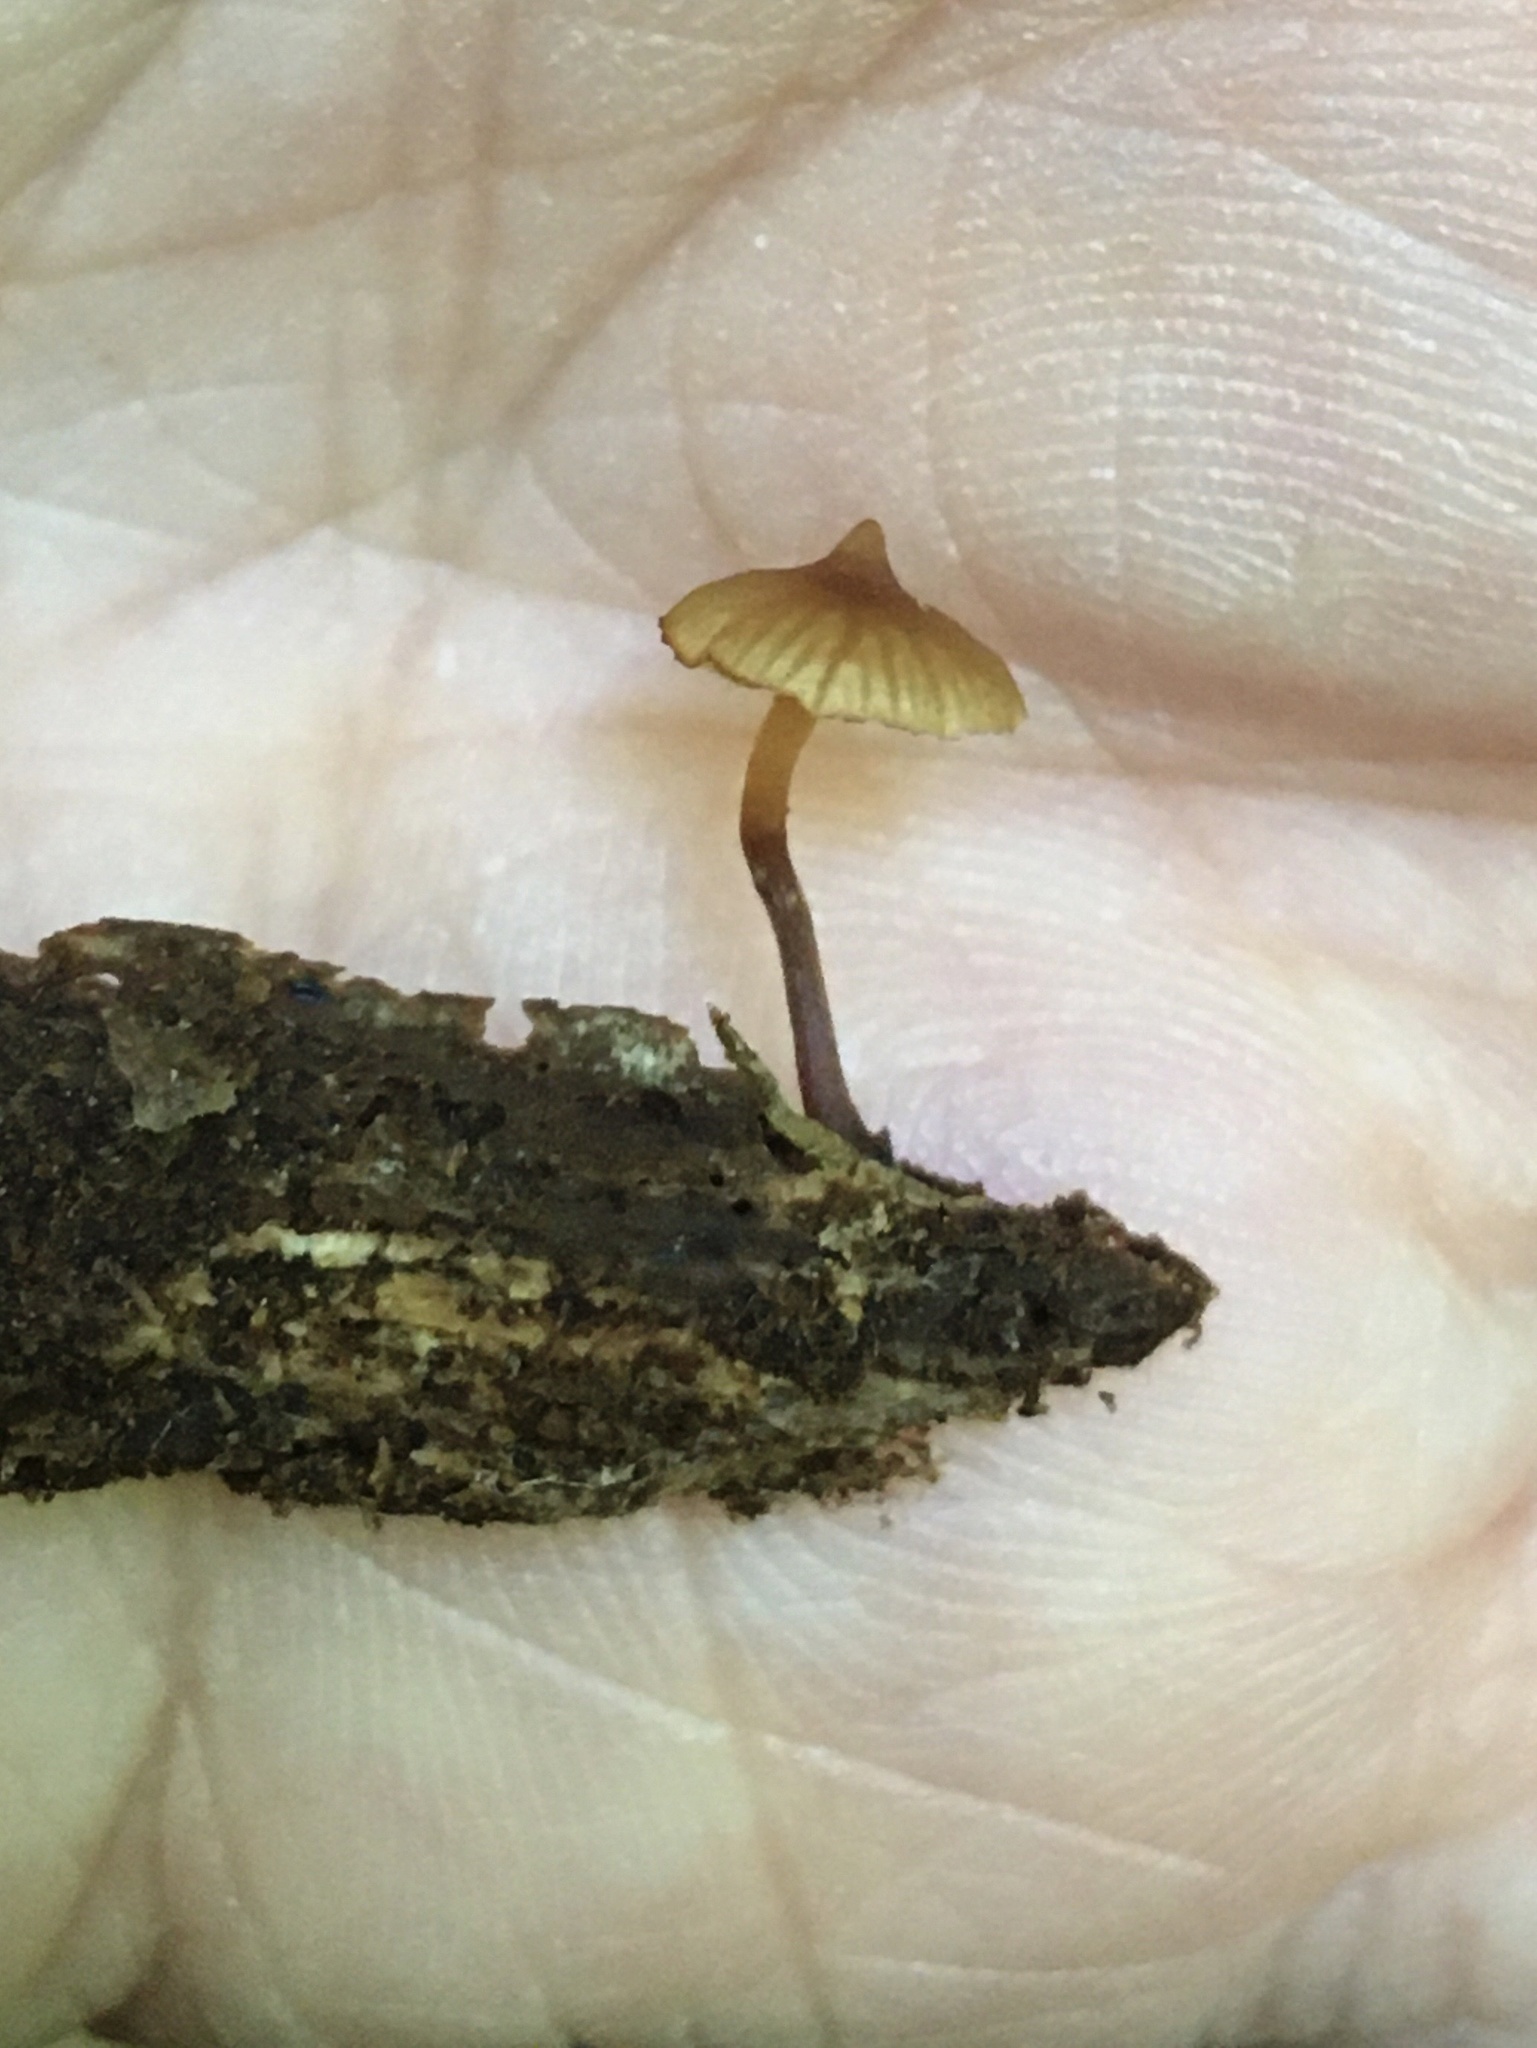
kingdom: Fungi
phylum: Basidiomycota
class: Agaricomycetes
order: Agaricales
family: Hymenogastraceae
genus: Galerina
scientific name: Galerina triscopa
